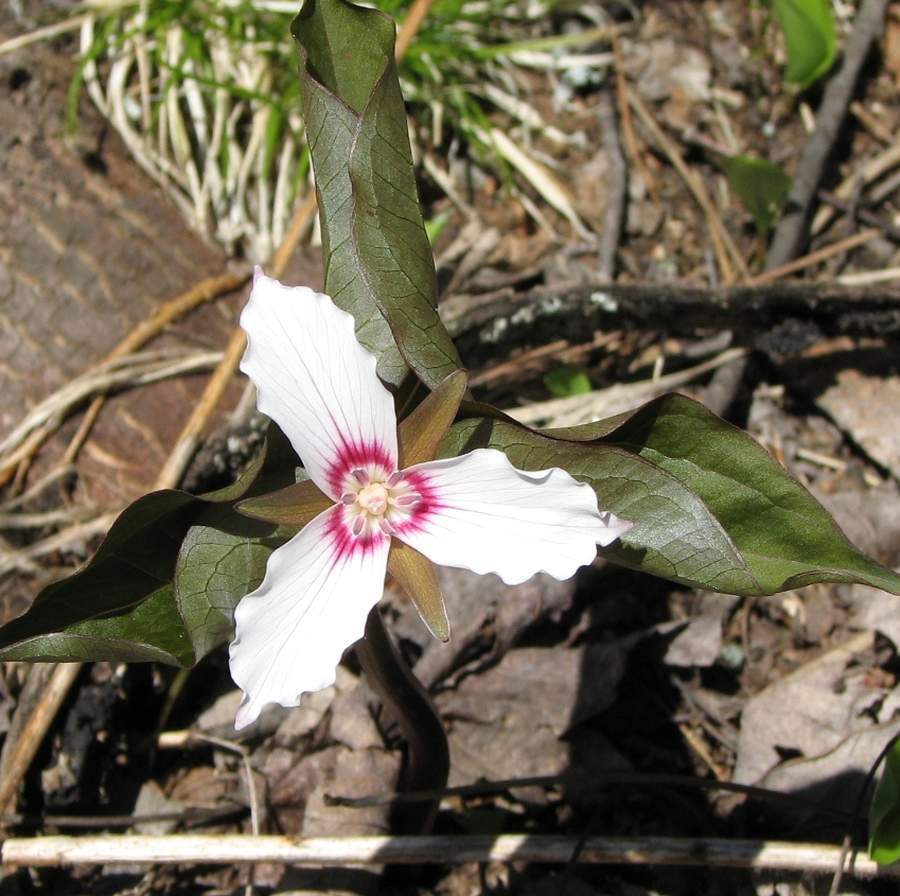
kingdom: Plantae
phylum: Tracheophyta
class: Liliopsida
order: Liliales
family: Melanthiaceae
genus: Trillium
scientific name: Trillium undulatum
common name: Paint trillium
